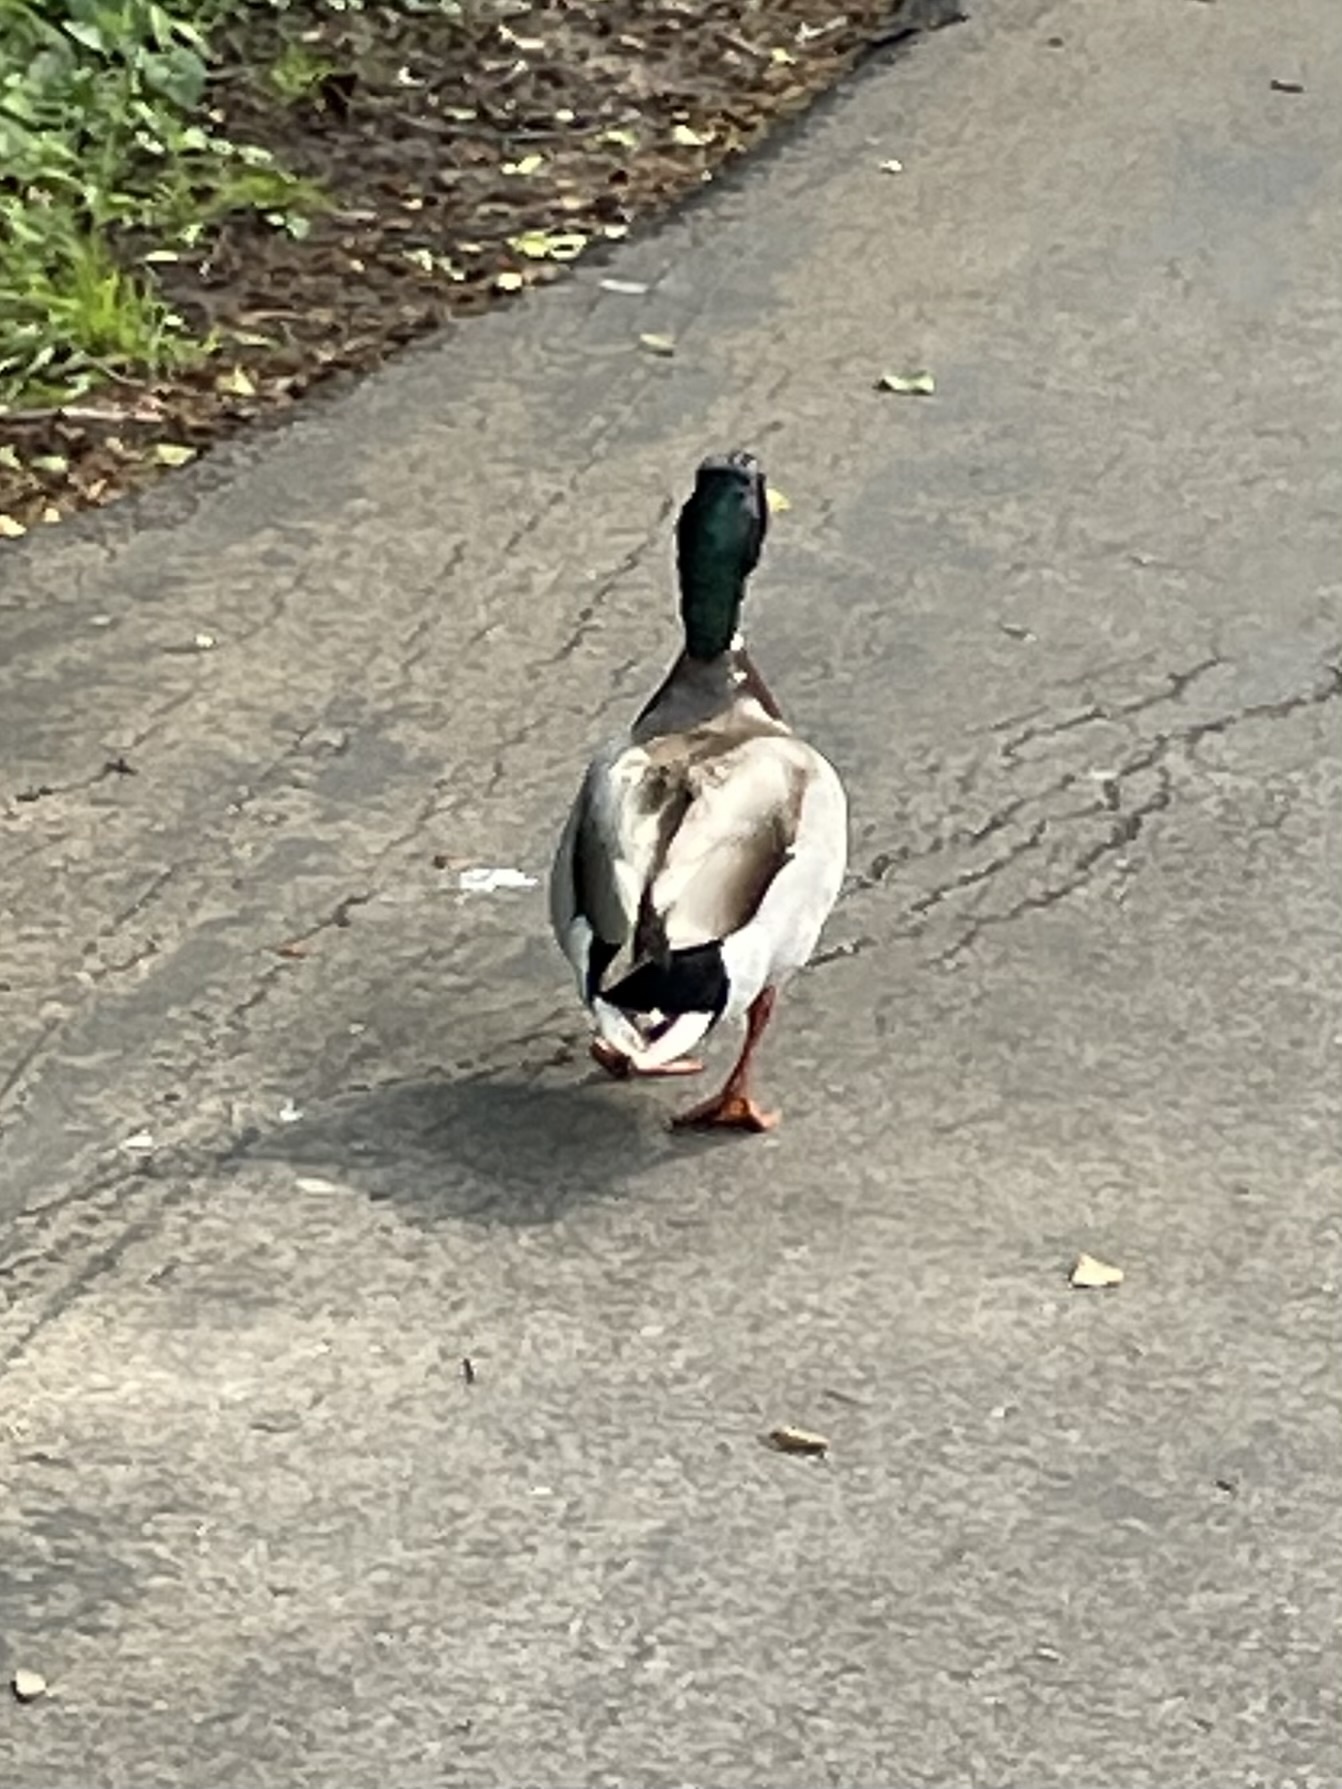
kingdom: Animalia
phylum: Chordata
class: Aves
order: Anseriformes
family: Anatidae
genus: Anas
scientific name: Anas platyrhynchos
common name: Mallard
